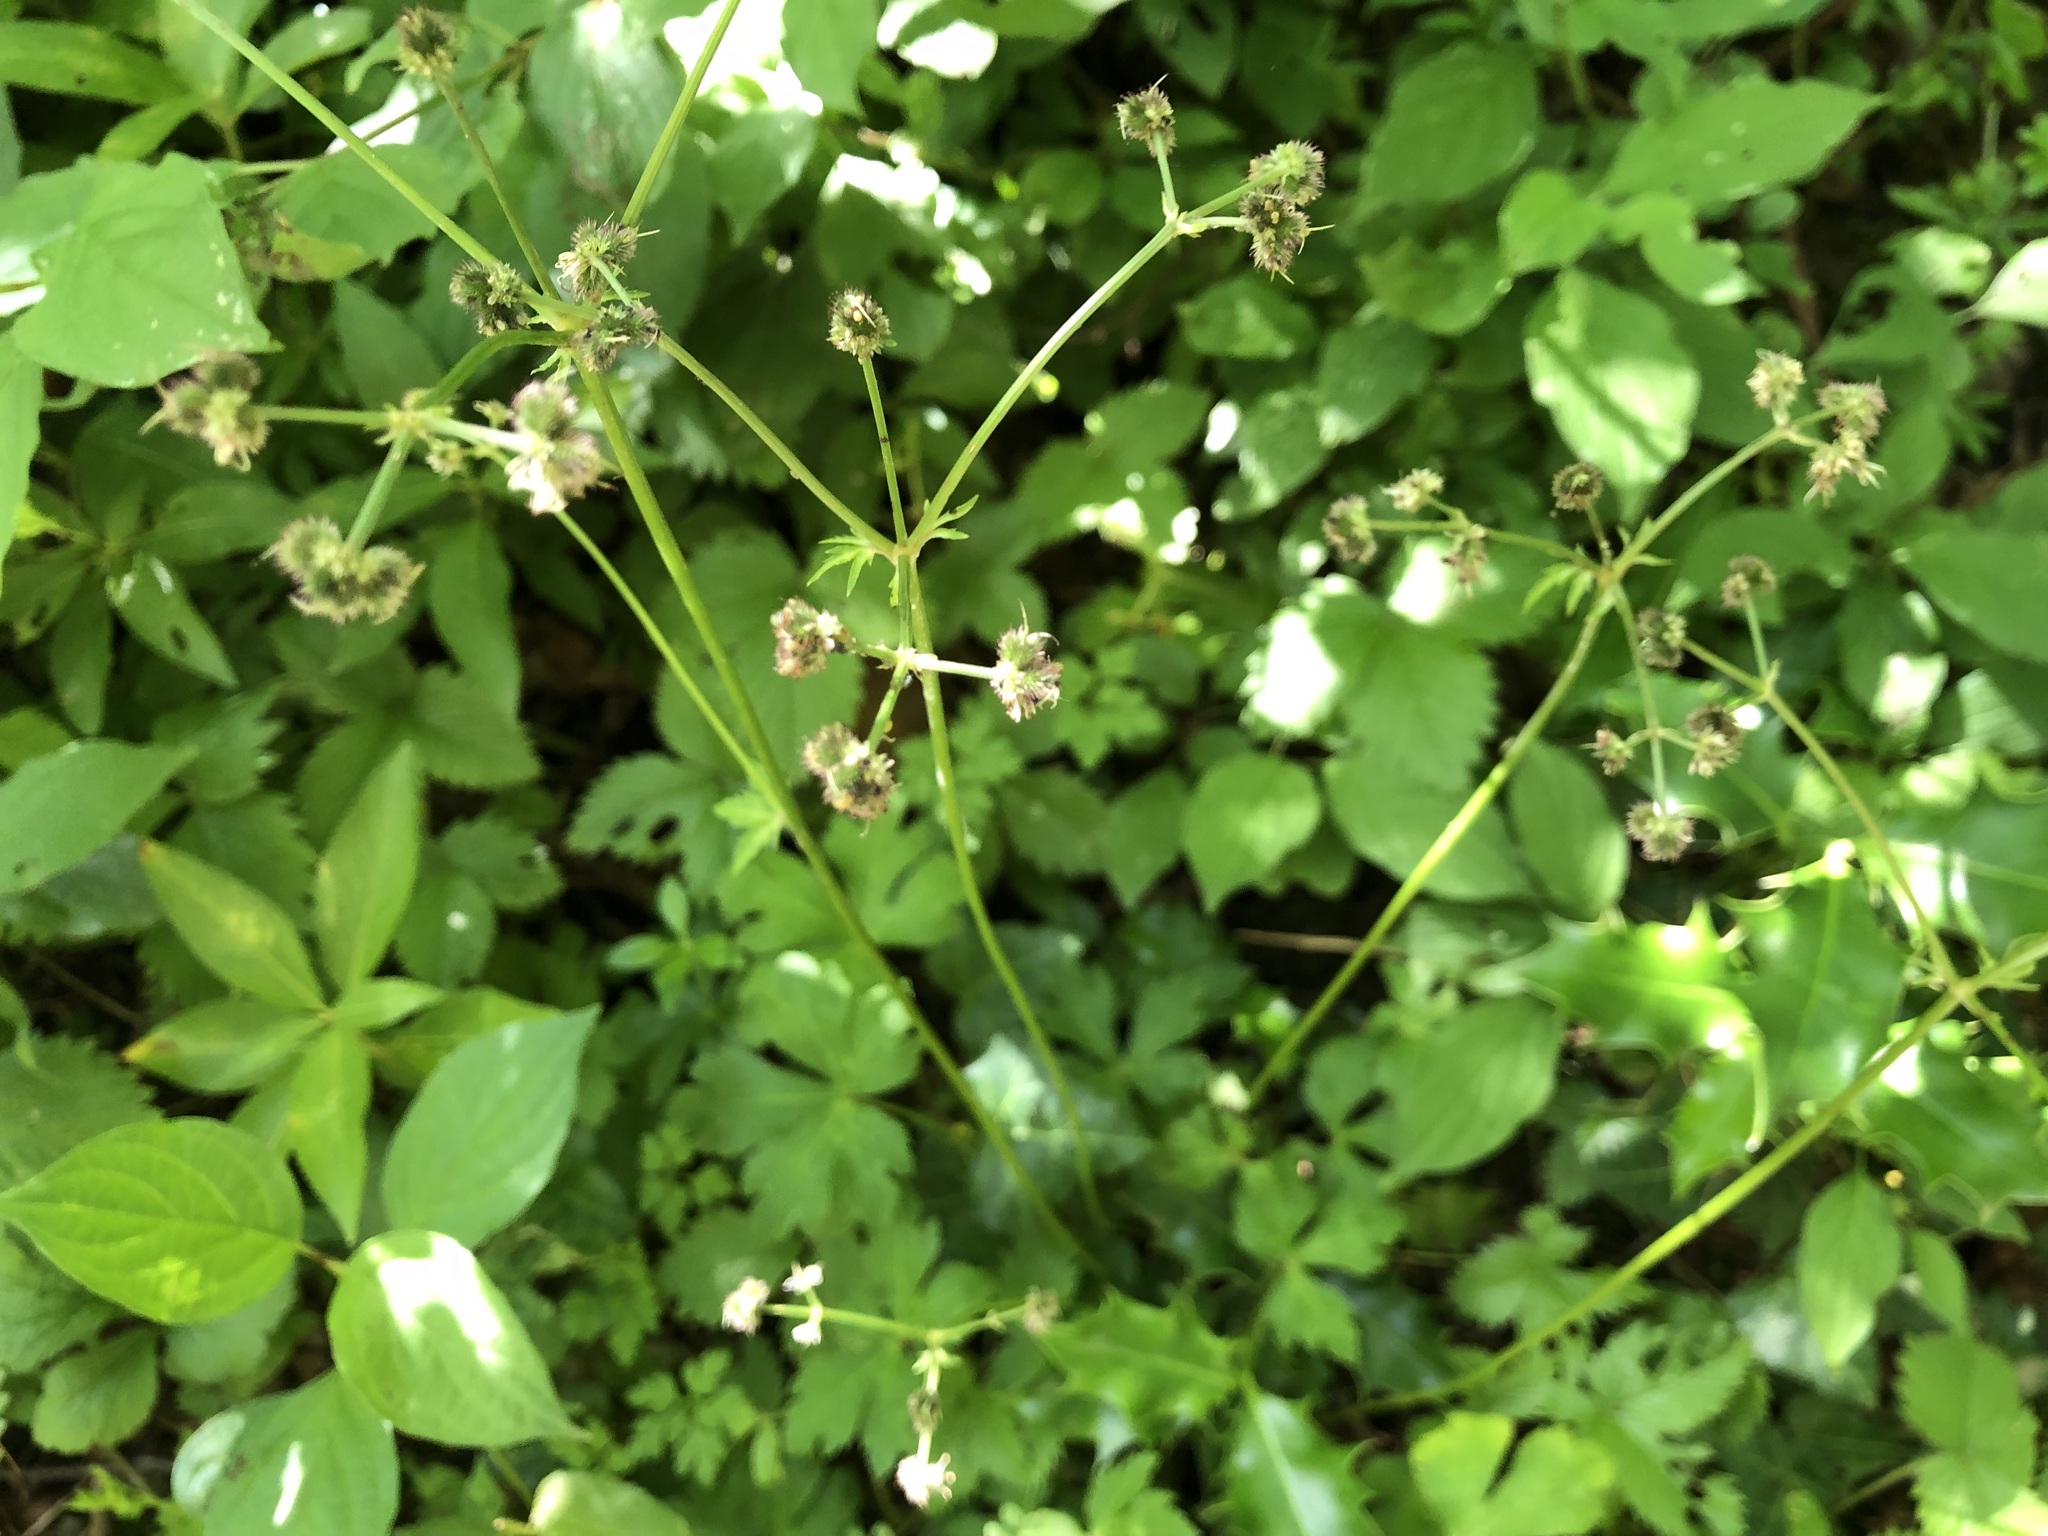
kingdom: Plantae
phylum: Tracheophyta
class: Magnoliopsida
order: Apiales
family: Apiaceae
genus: Sanicula
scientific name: Sanicula europaea
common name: Sanicle
